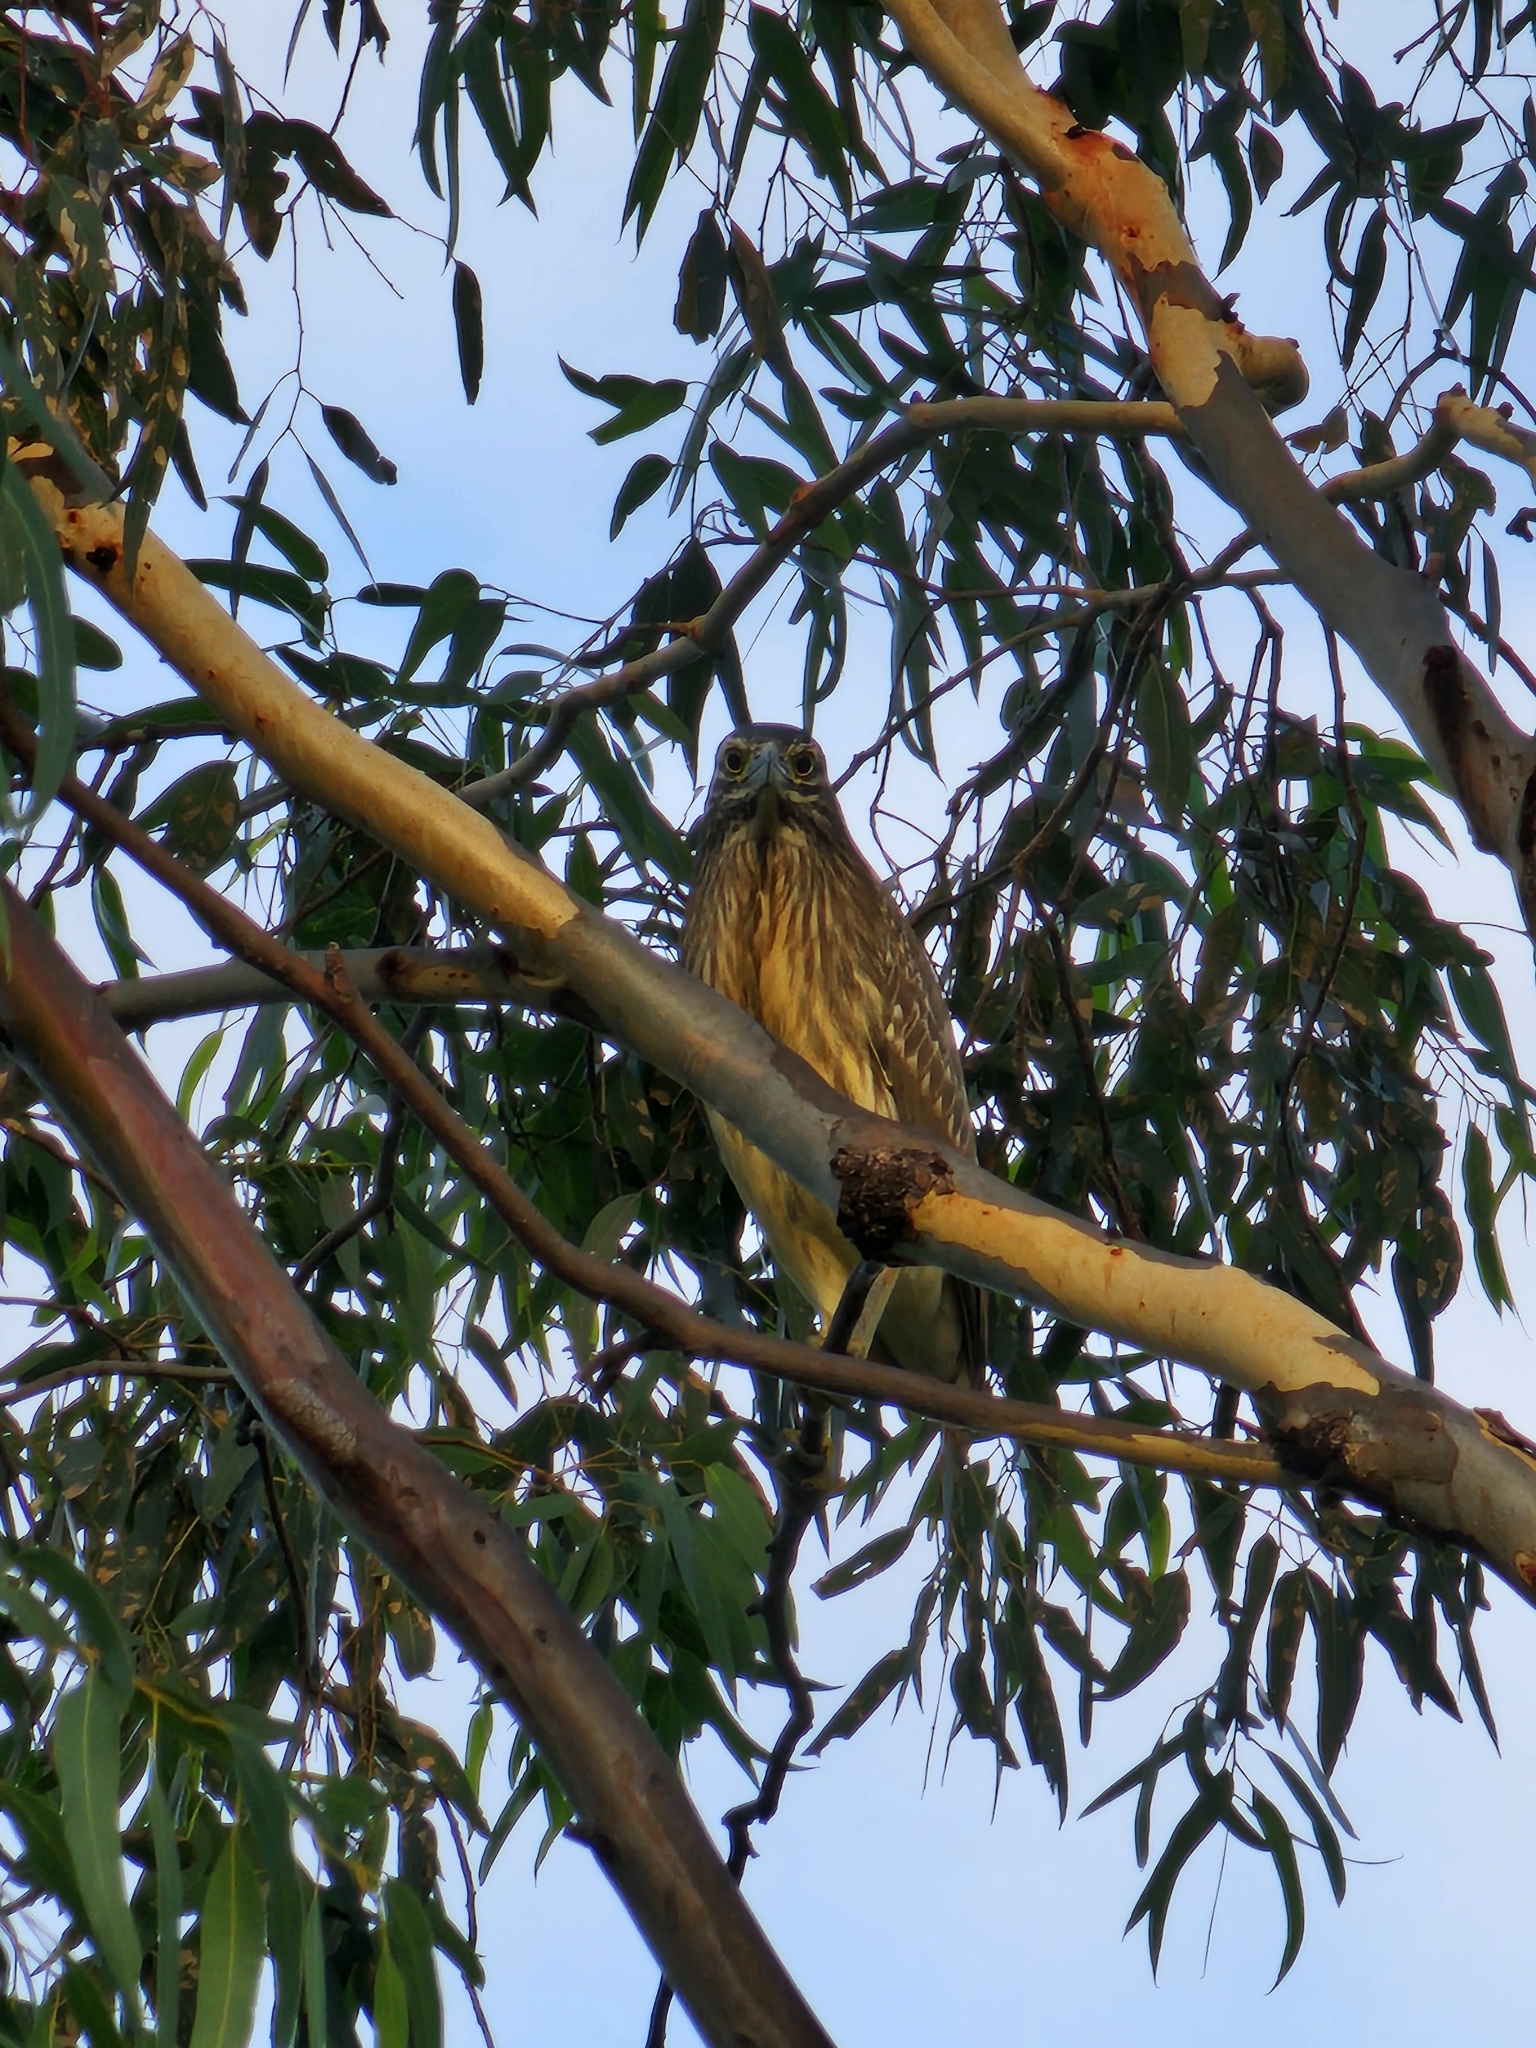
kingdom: Animalia
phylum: Chordata
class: Aves
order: Pelecaniformes
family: Ardeidae
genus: Nycticorax
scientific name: Nycticorax caledonicus
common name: Rufous night-heron
